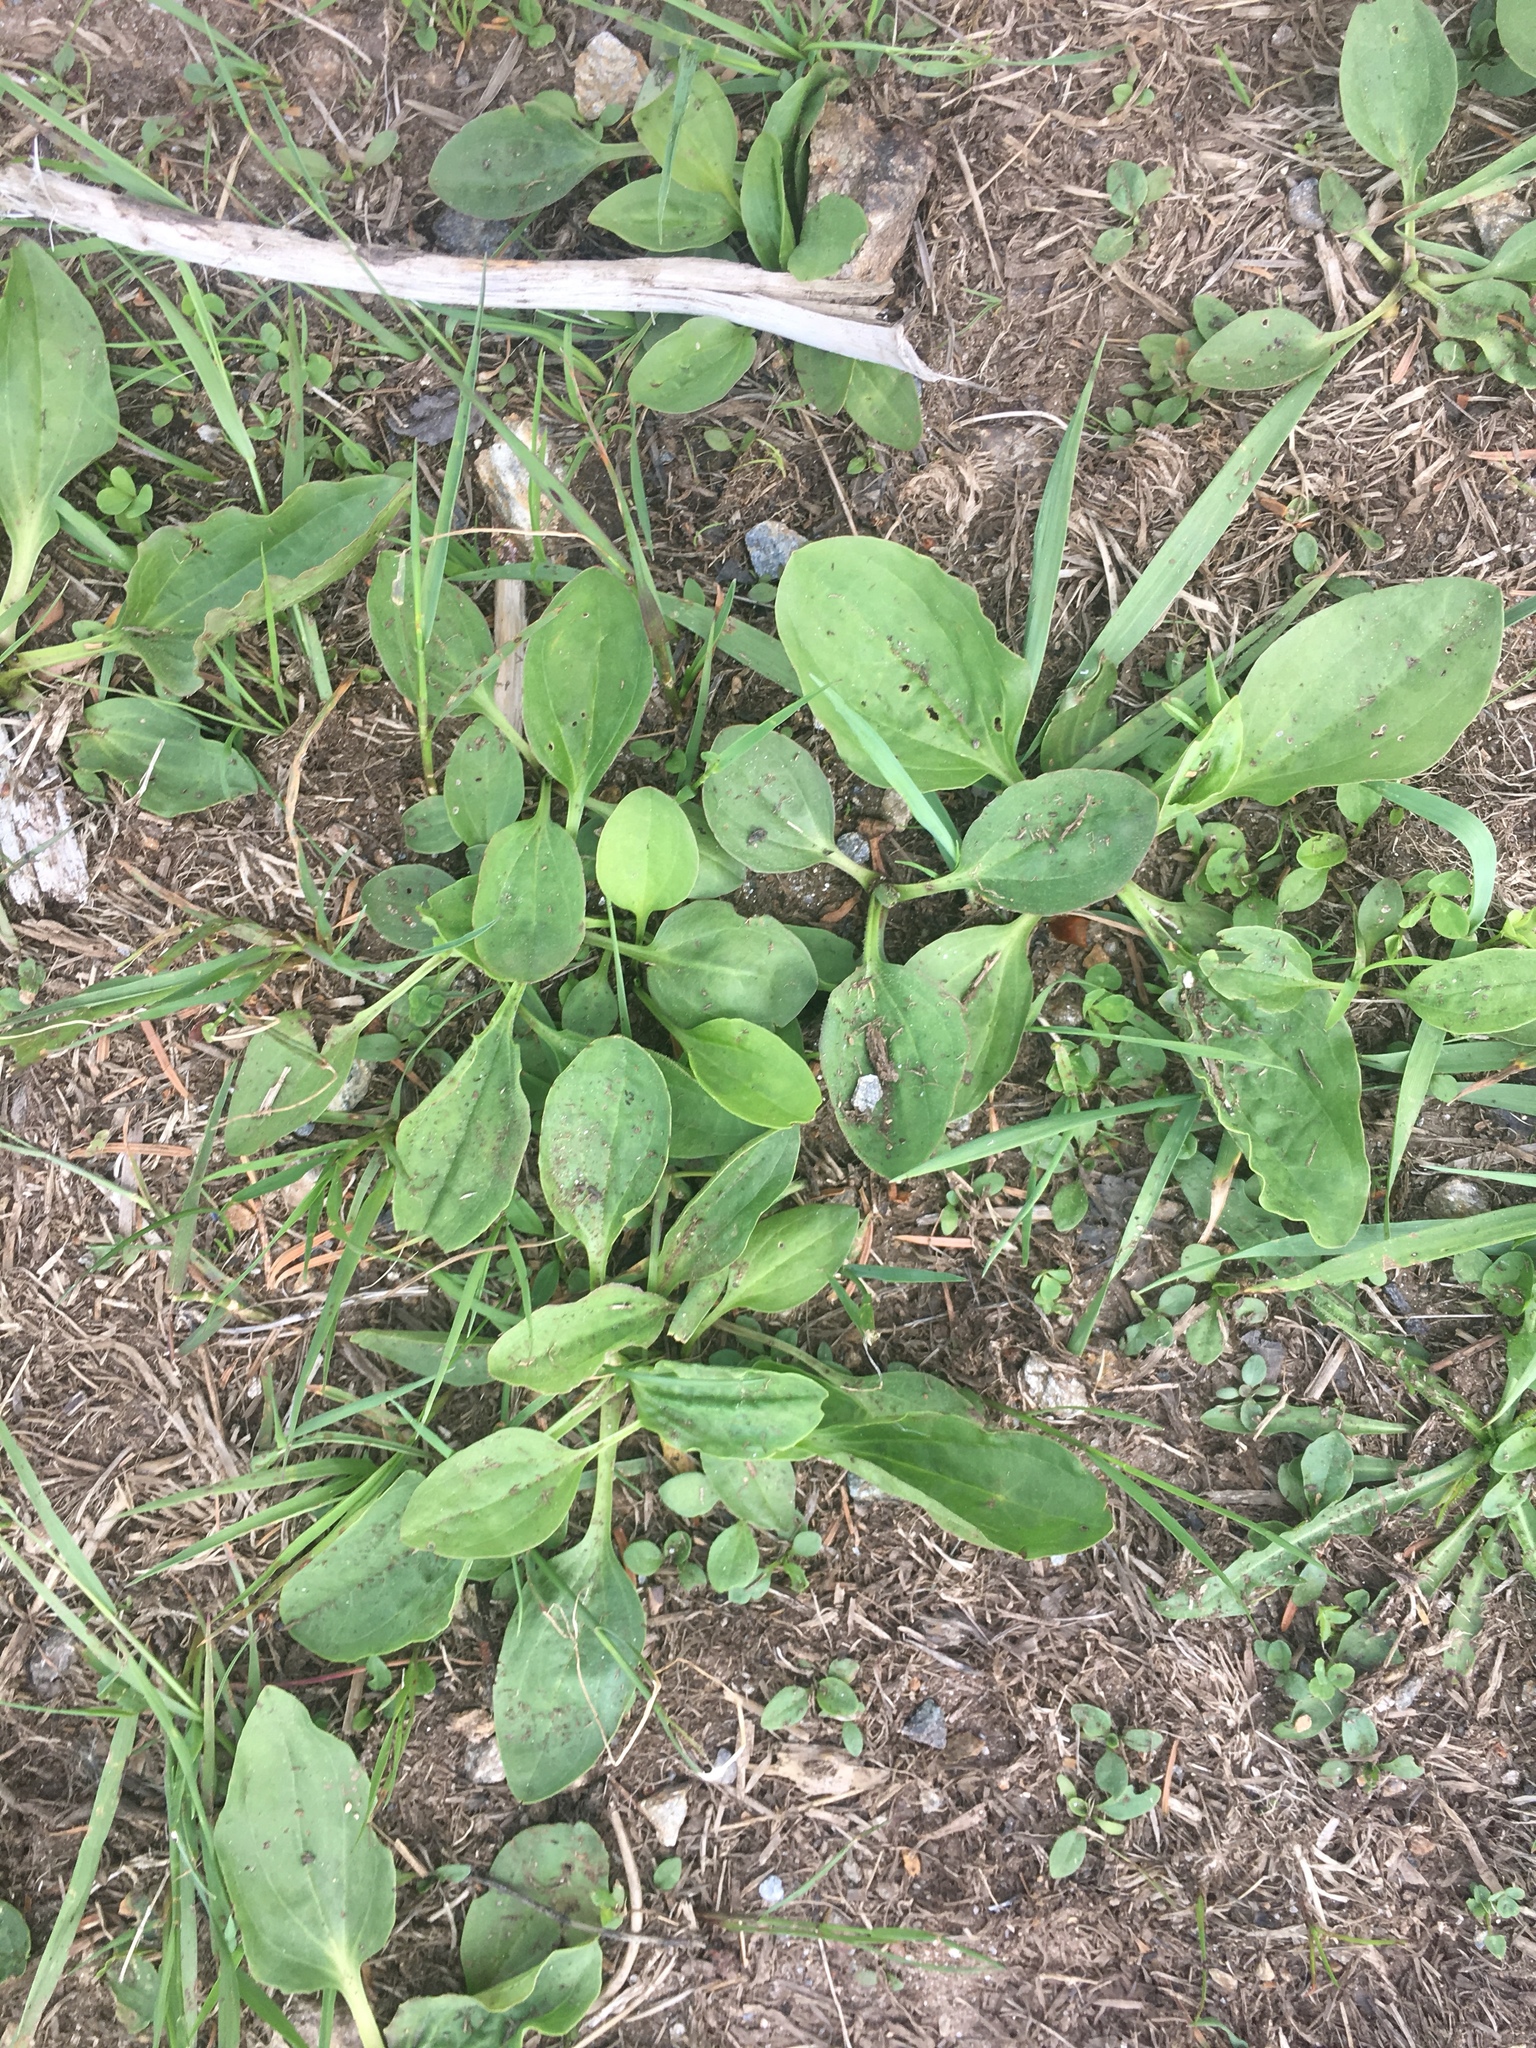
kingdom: Plantae
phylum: Tracheophyta
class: Magnoliopsida
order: Lamiales
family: Plantaginaceae
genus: Plantago
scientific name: Plantago major
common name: Common plantain
